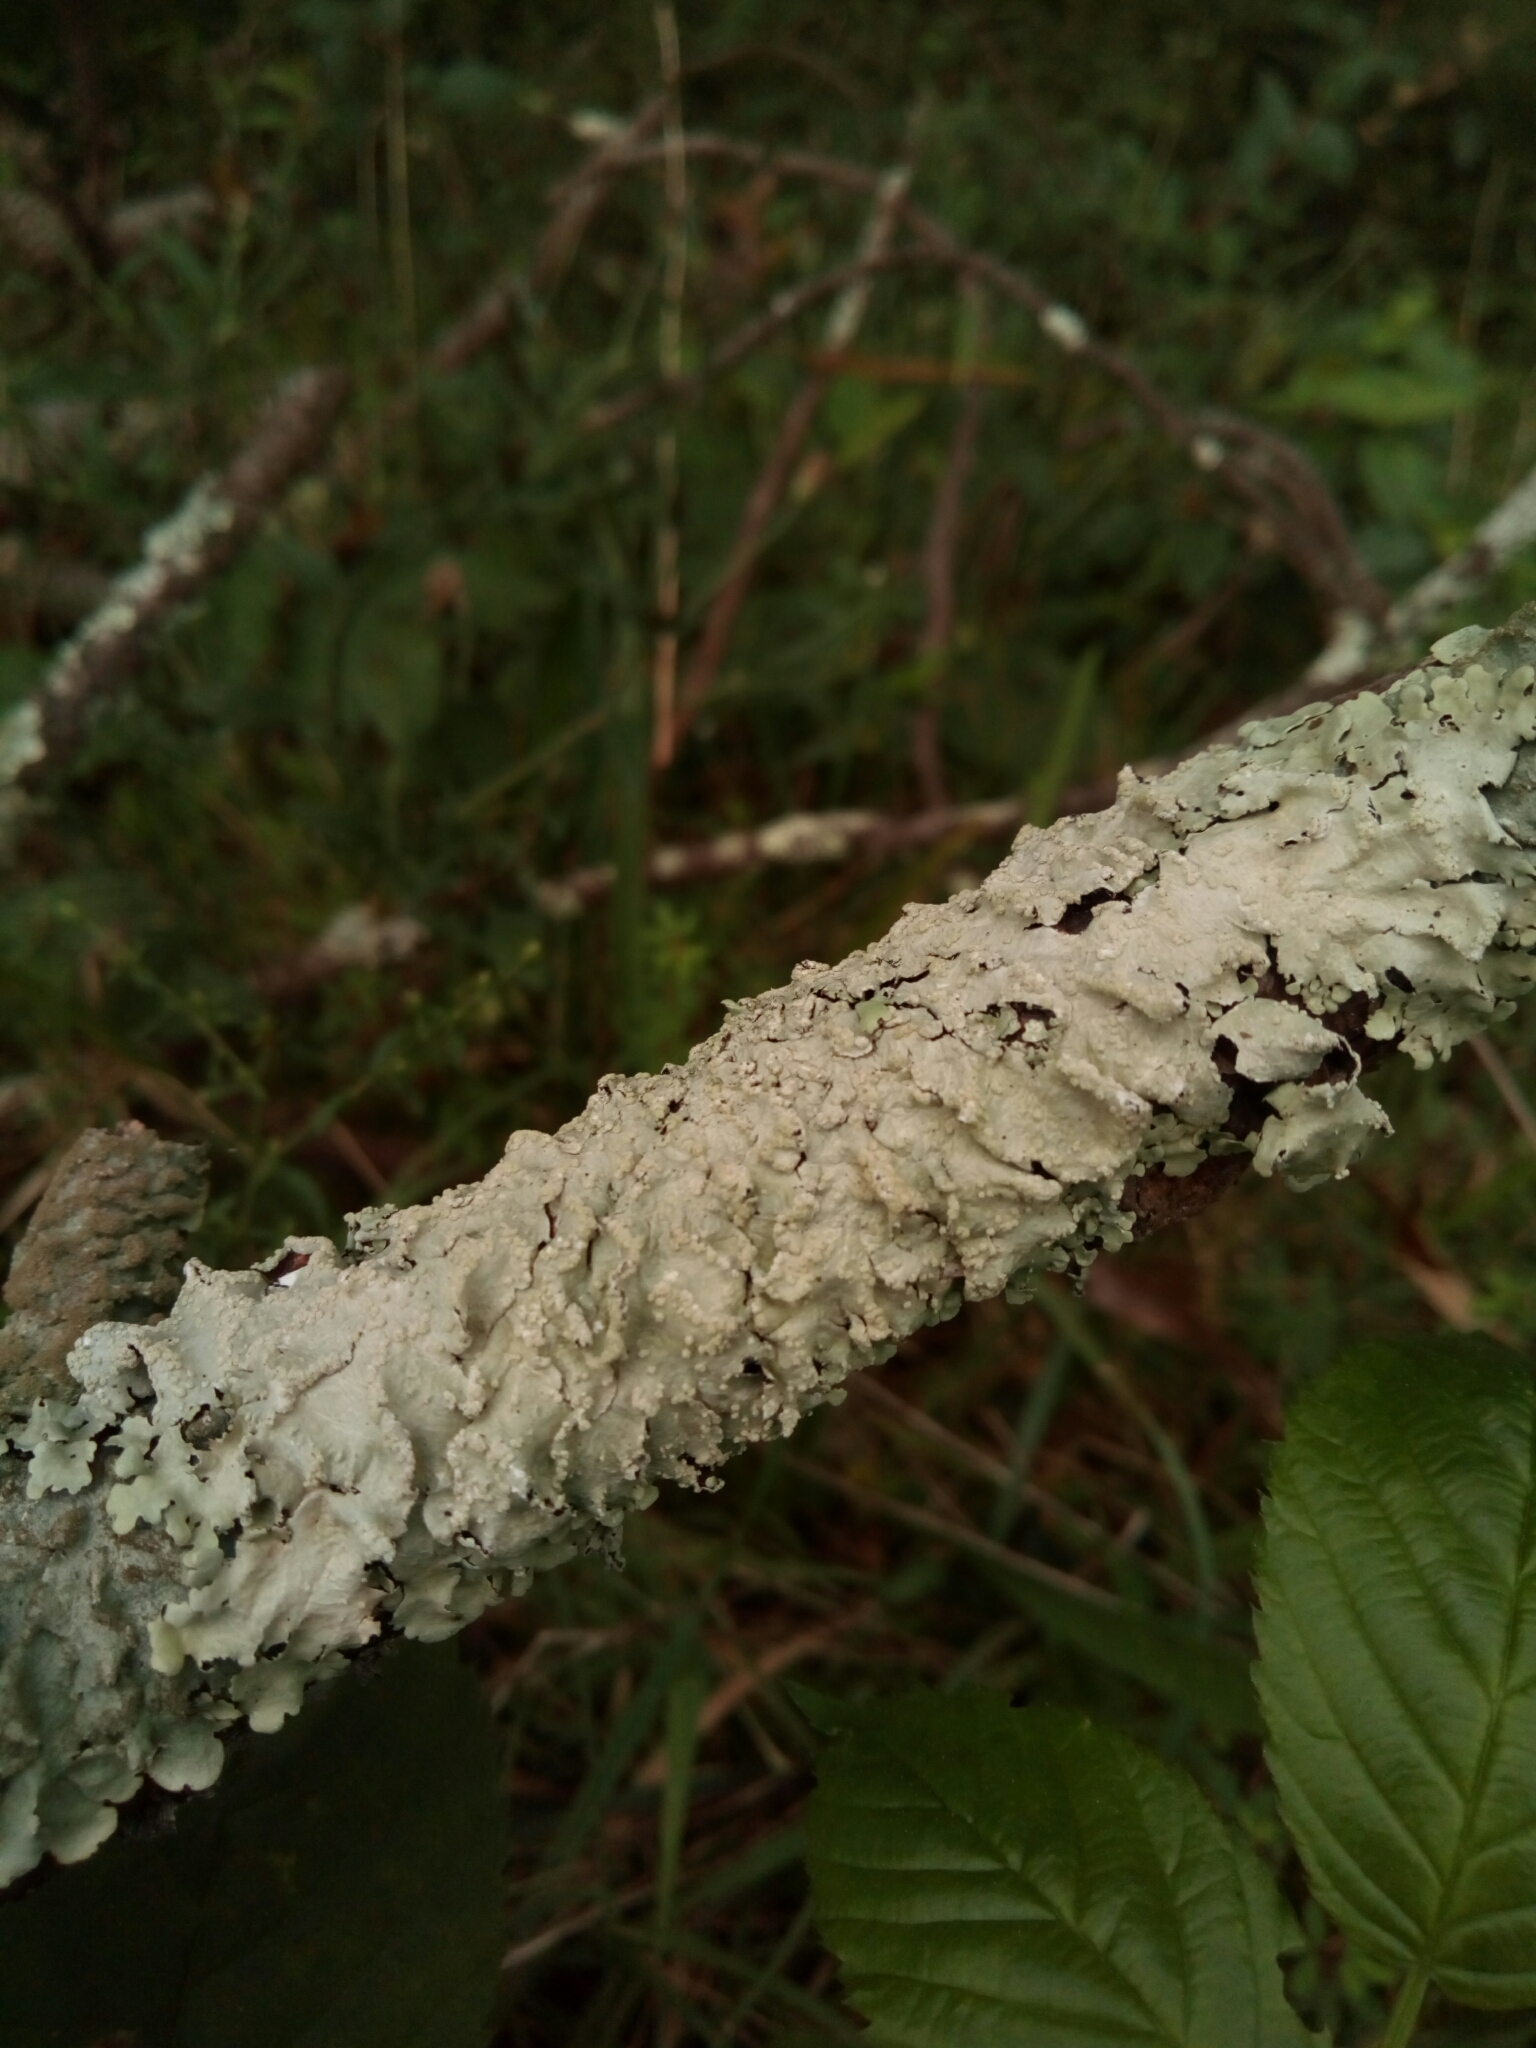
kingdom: Fungi
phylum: Ascomycota
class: Lecanoromycetes
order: Lecanorales
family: Parmeliaceae
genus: Canoparmelia
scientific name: Canoparmelia texana
